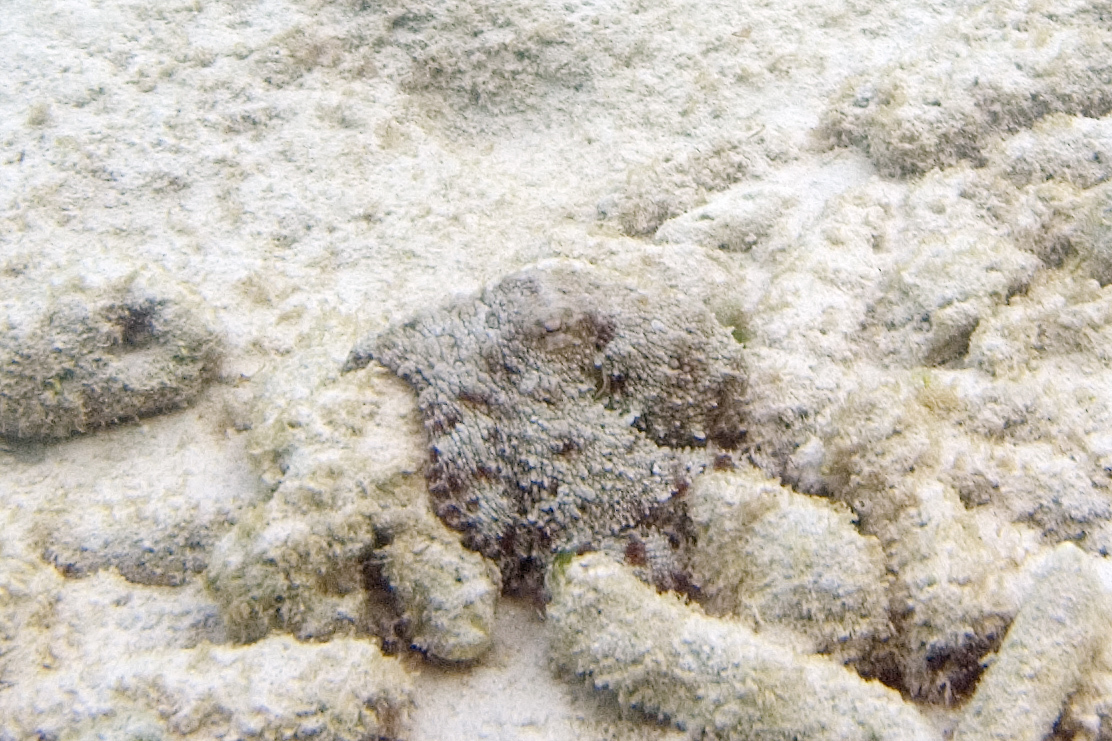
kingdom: Animalia
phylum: Mollusca
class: Cephalopoda
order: Octopoda
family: Octopodidae
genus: Octopus
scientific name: Octopus insularis
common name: Brazil reef octopus
